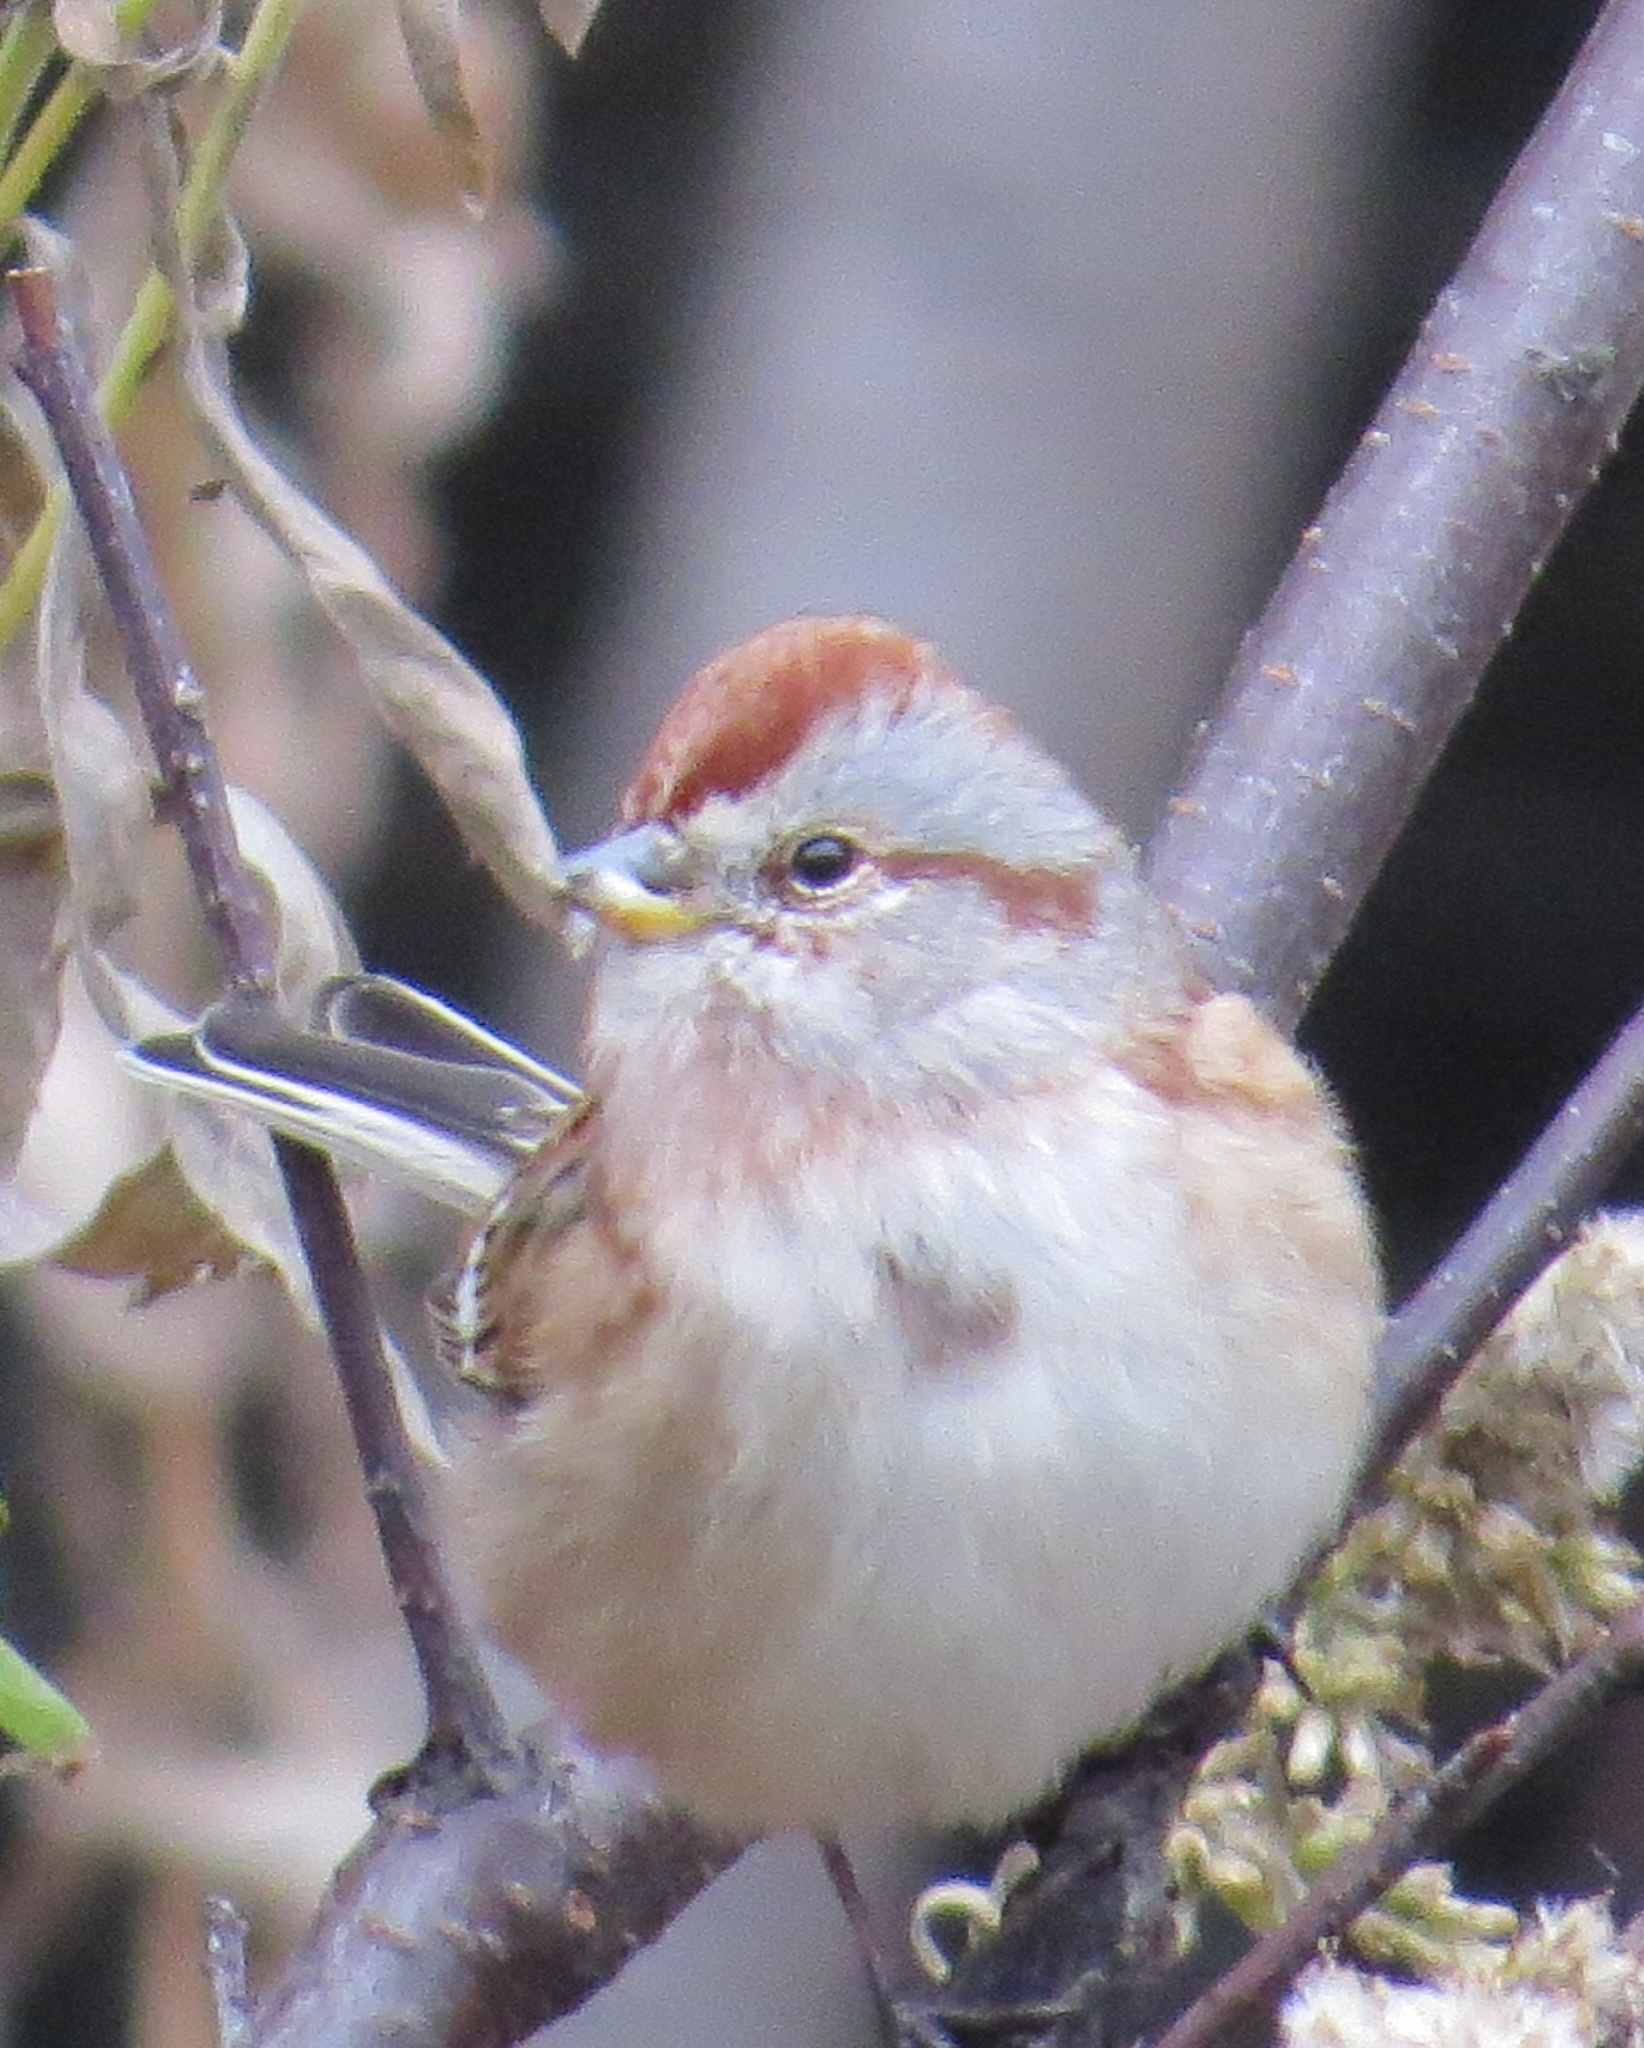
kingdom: Animalia
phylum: Chordata
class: Aves
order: Passeriformes
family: Passerellidae
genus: Spizelloides
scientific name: Spizelloides arborea
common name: American tree sparrow
